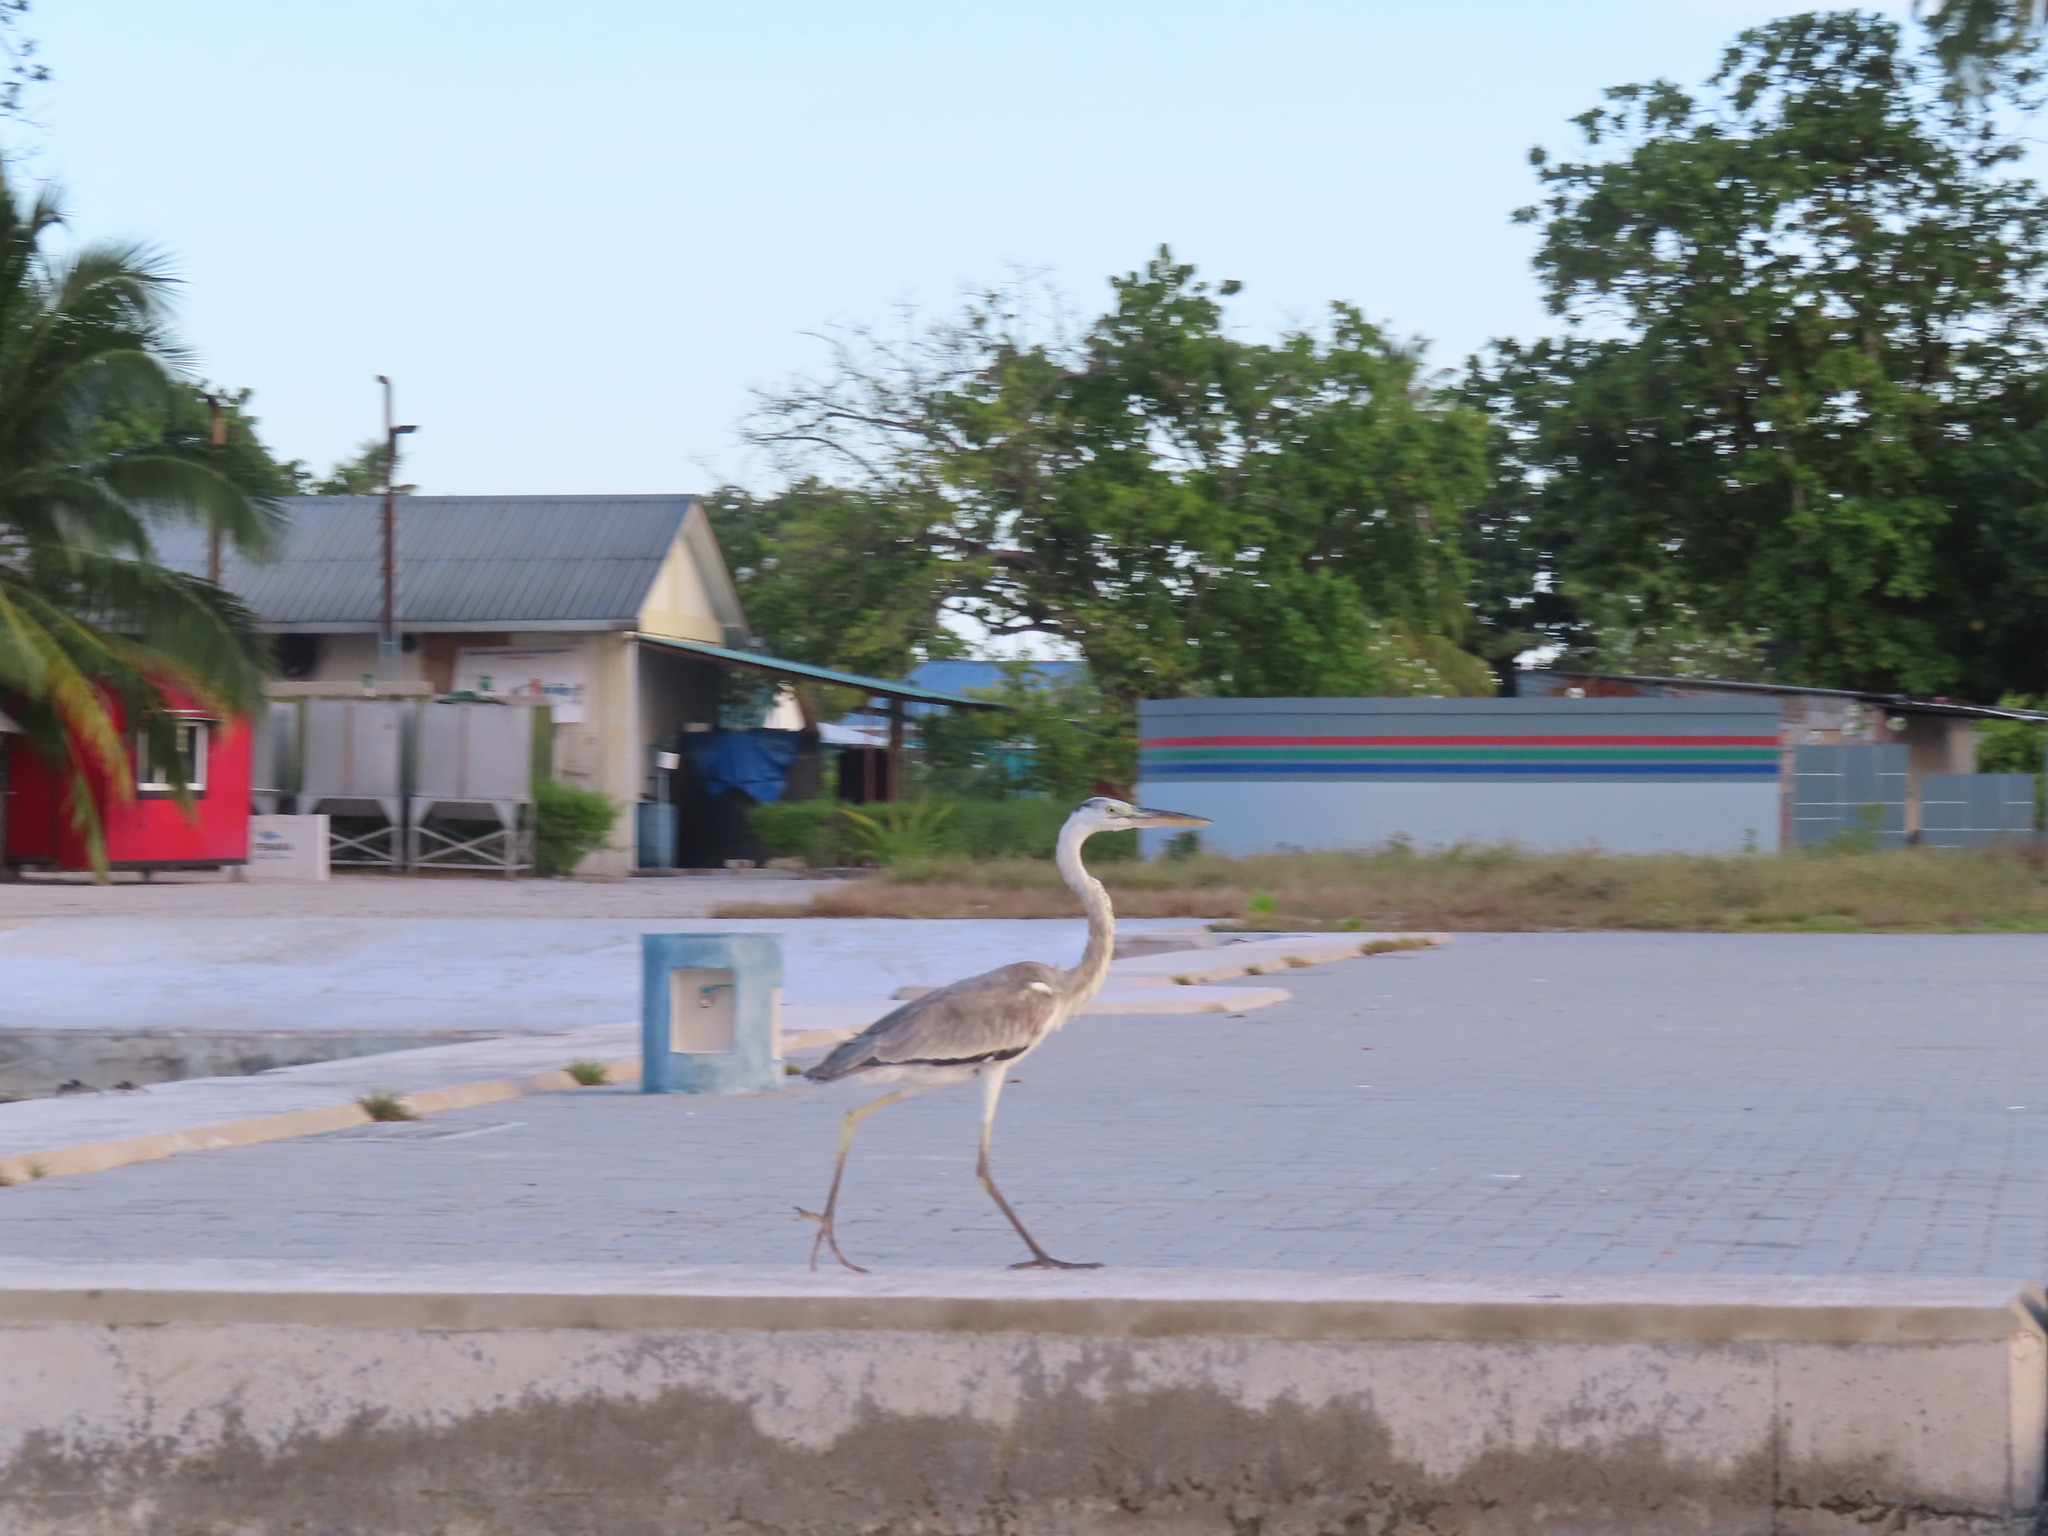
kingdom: Animalia
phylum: Chordata
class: Aves
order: Pelecaniformes
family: Ardeidae
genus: Ardea
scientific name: Ardea cinerea
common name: Grey heron
